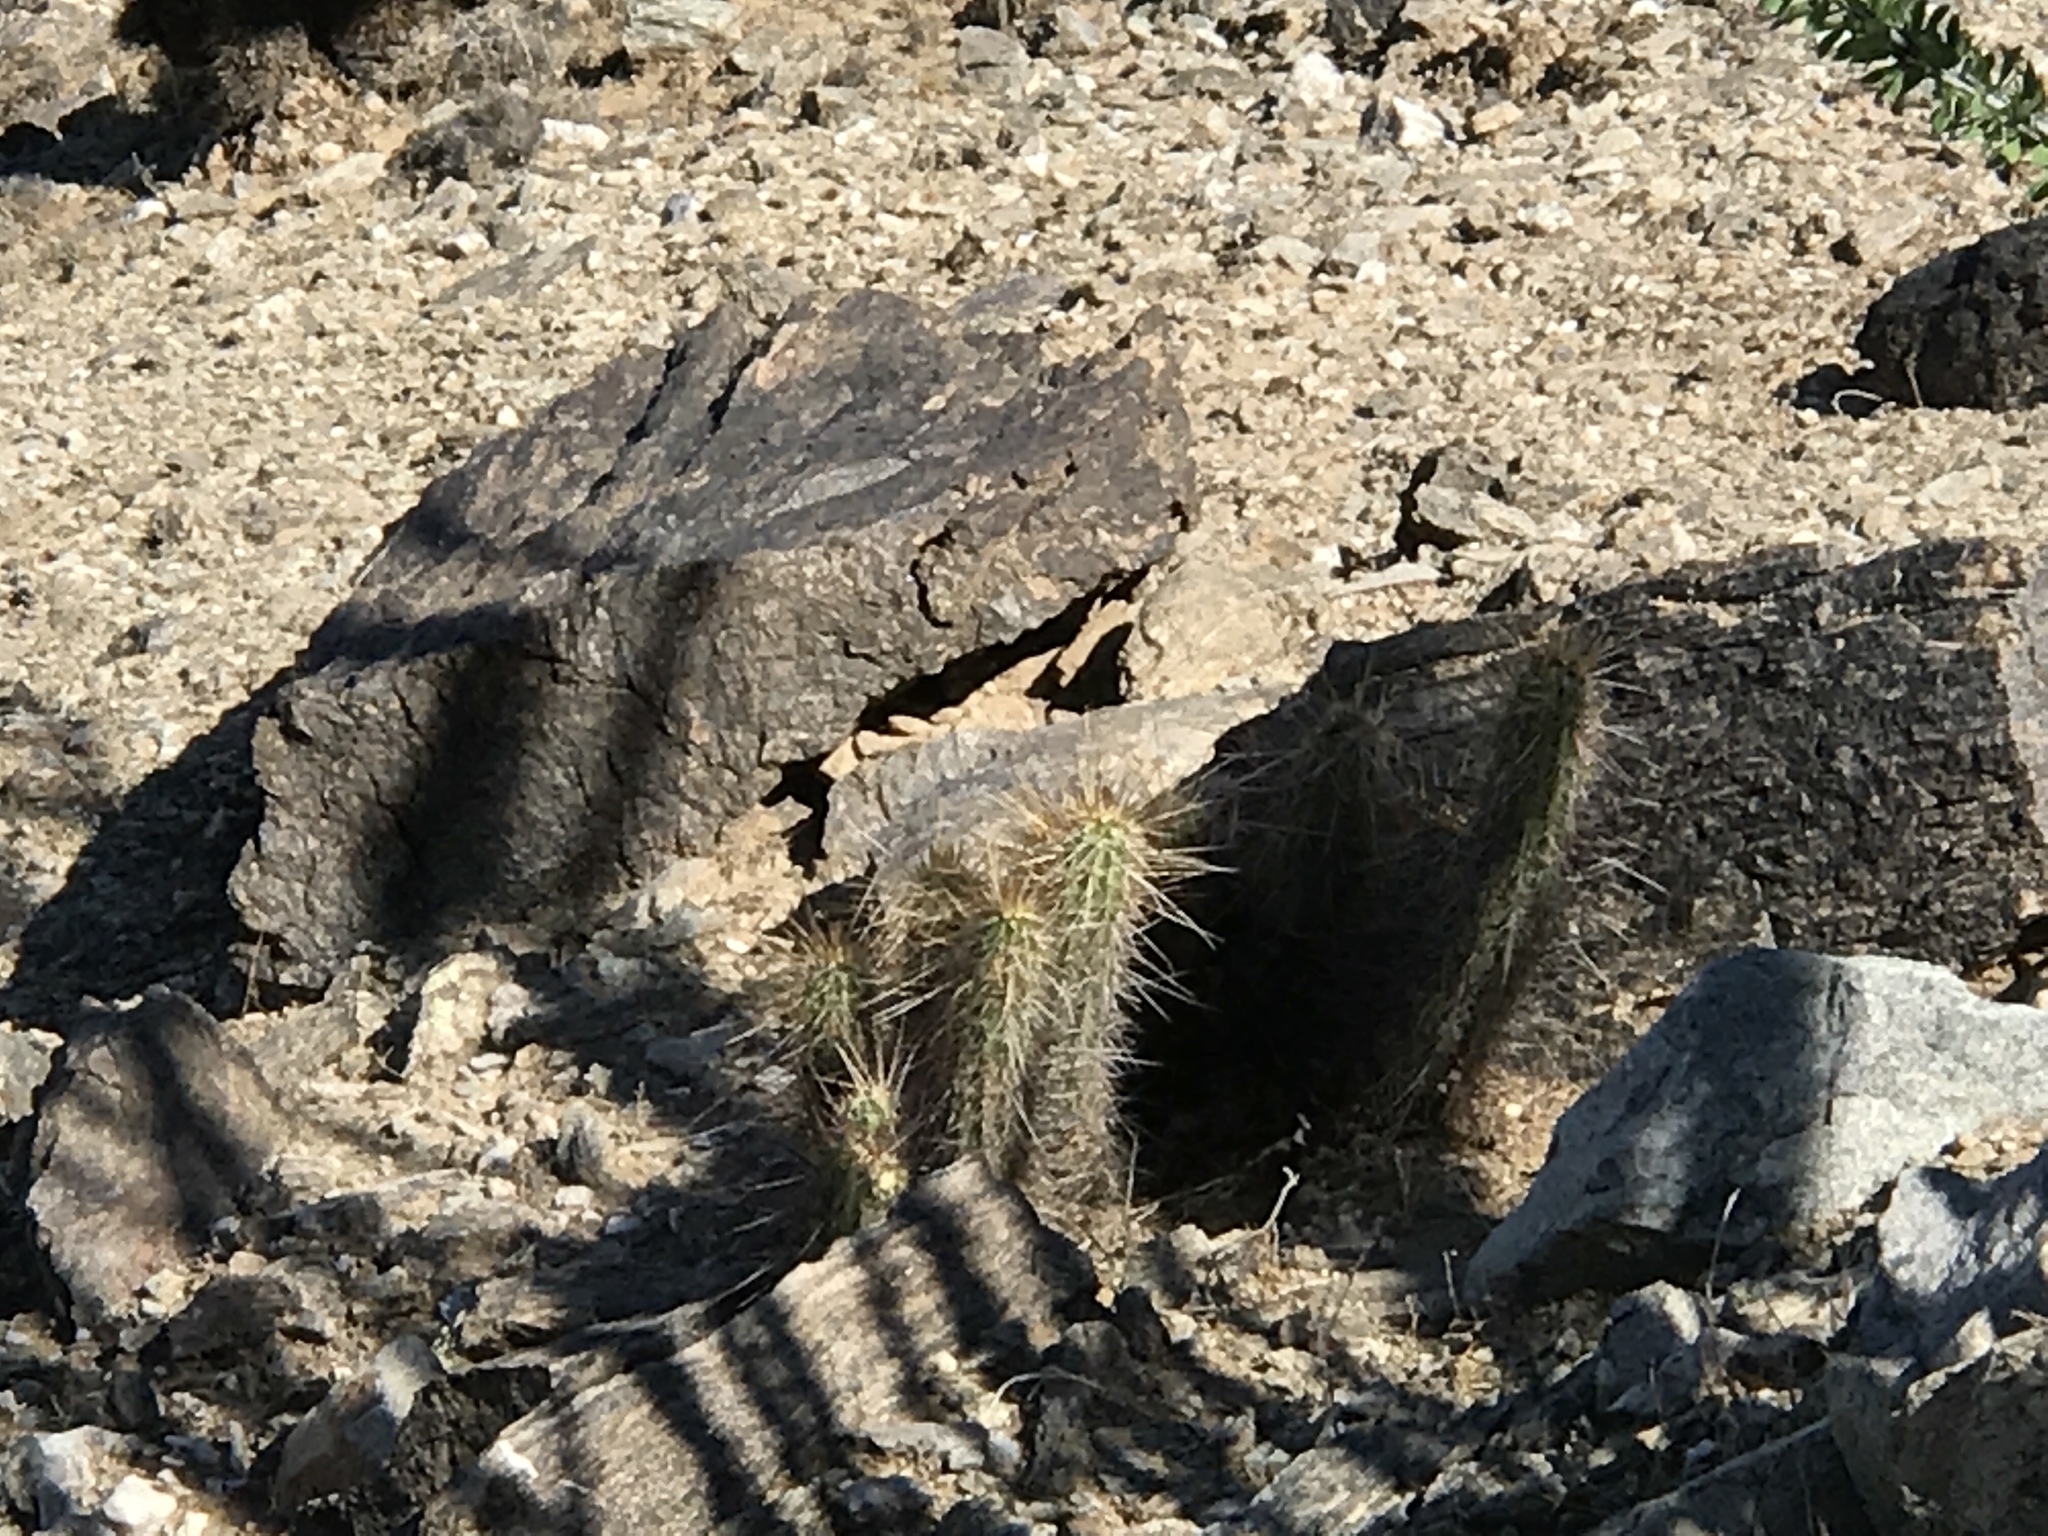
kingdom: Plantae
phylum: Tracheophyta
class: Magnoliopsida
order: Caryophyllales
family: Cactaceae
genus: Echinocereus
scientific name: Echinocereus engelmannii
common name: Engelmann's hedgehog cactus
